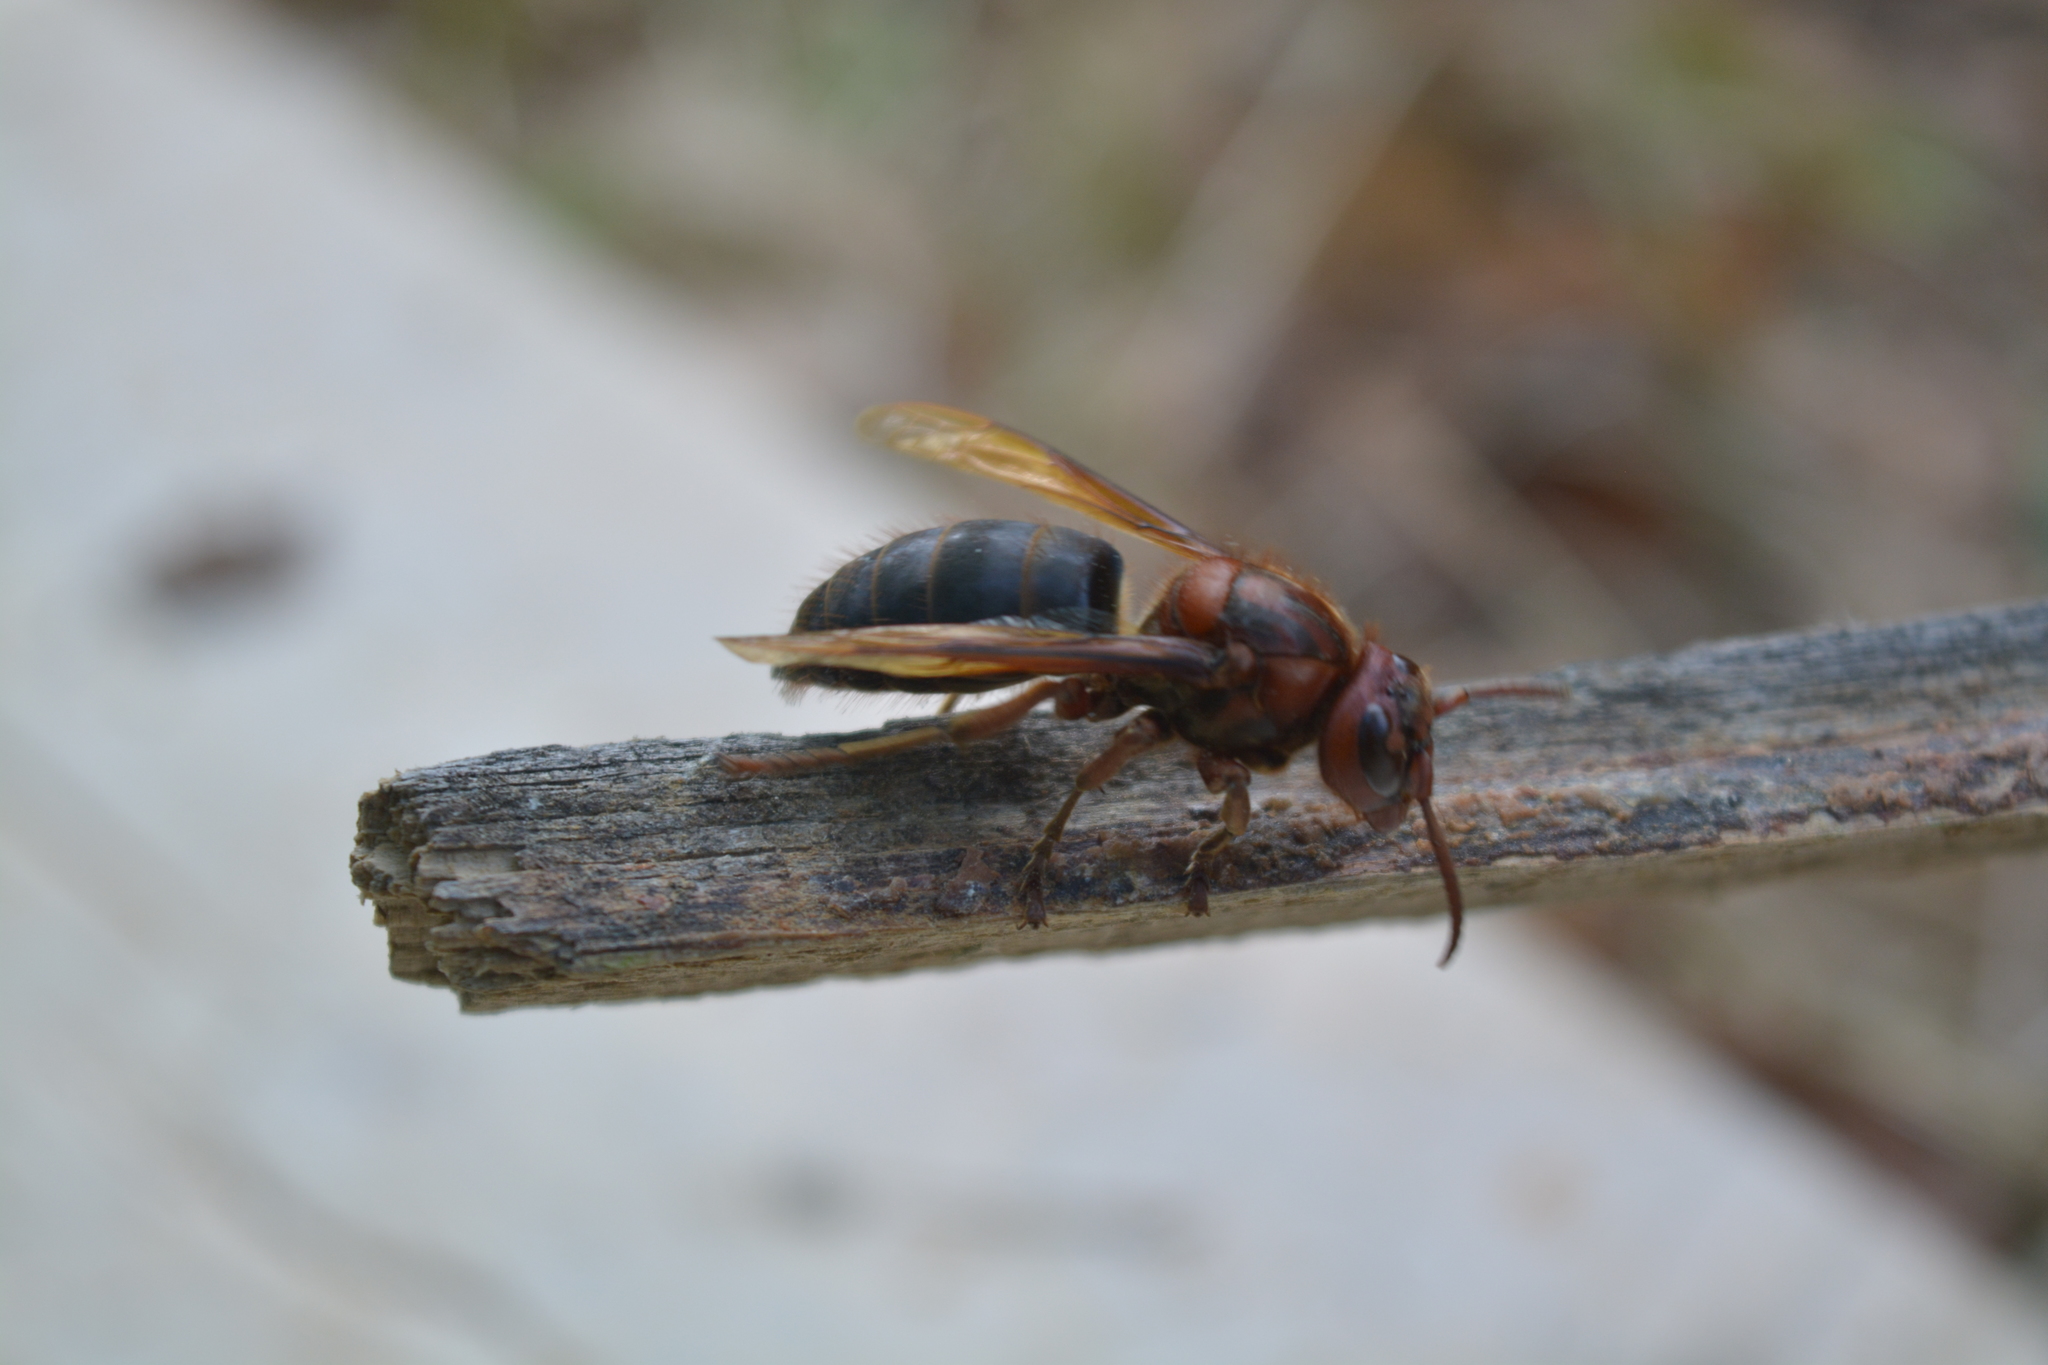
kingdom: Animalia
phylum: Arthropoda
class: Insecta
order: Hymenoptera
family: Vespidae
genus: Vespa
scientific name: Vespa dybowskii
